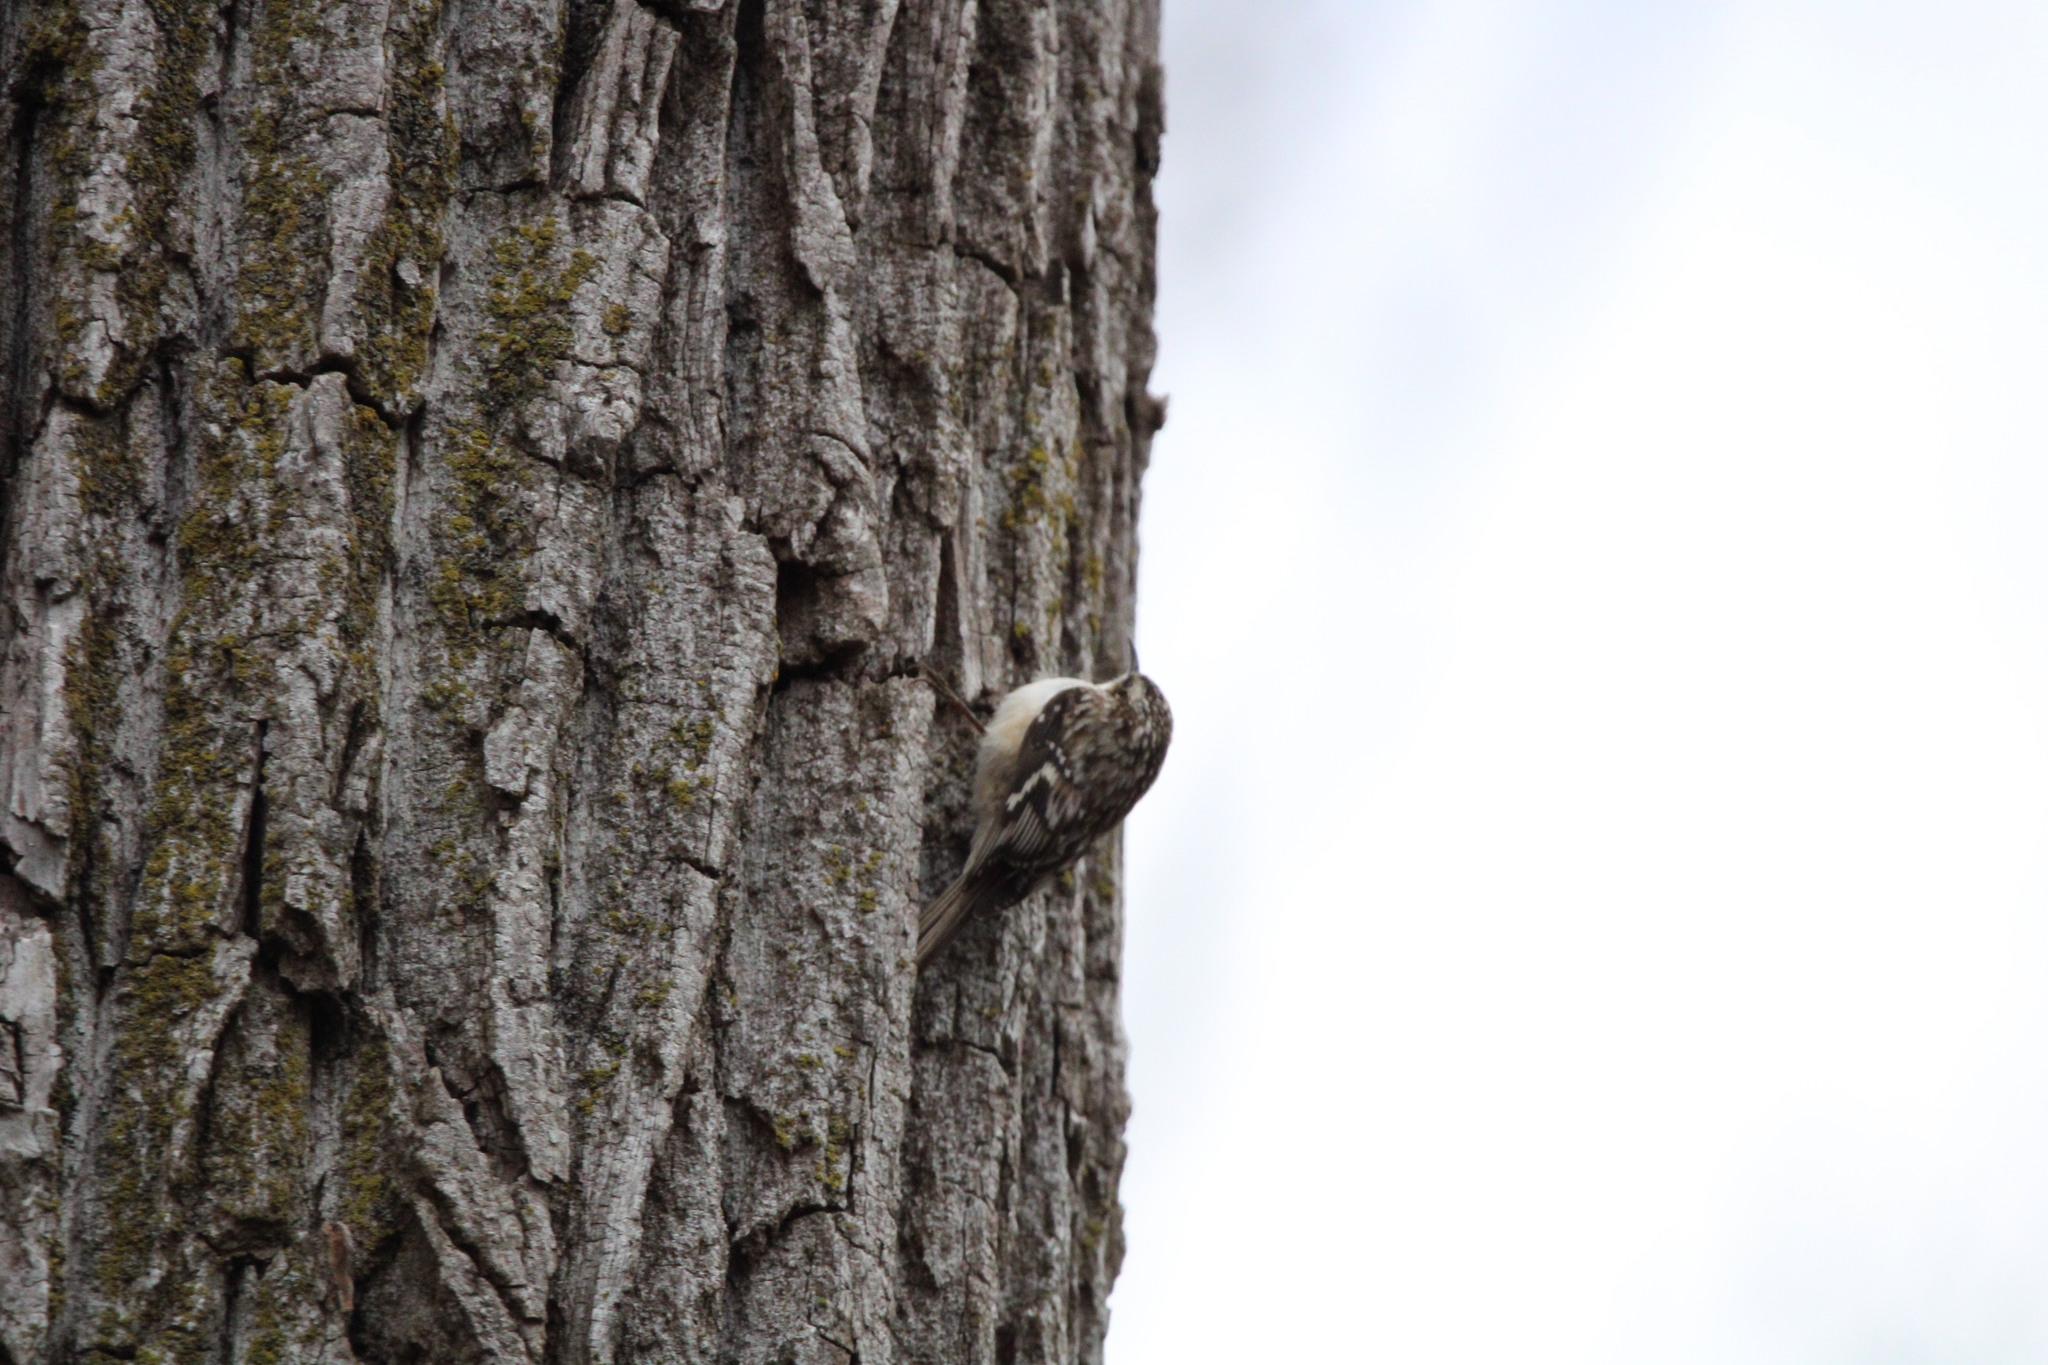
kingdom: Animalia
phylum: Chordata
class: Aves
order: Passeriformes
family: Certhiidae
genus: Certhia
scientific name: Certhia americana
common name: Brown creeper
